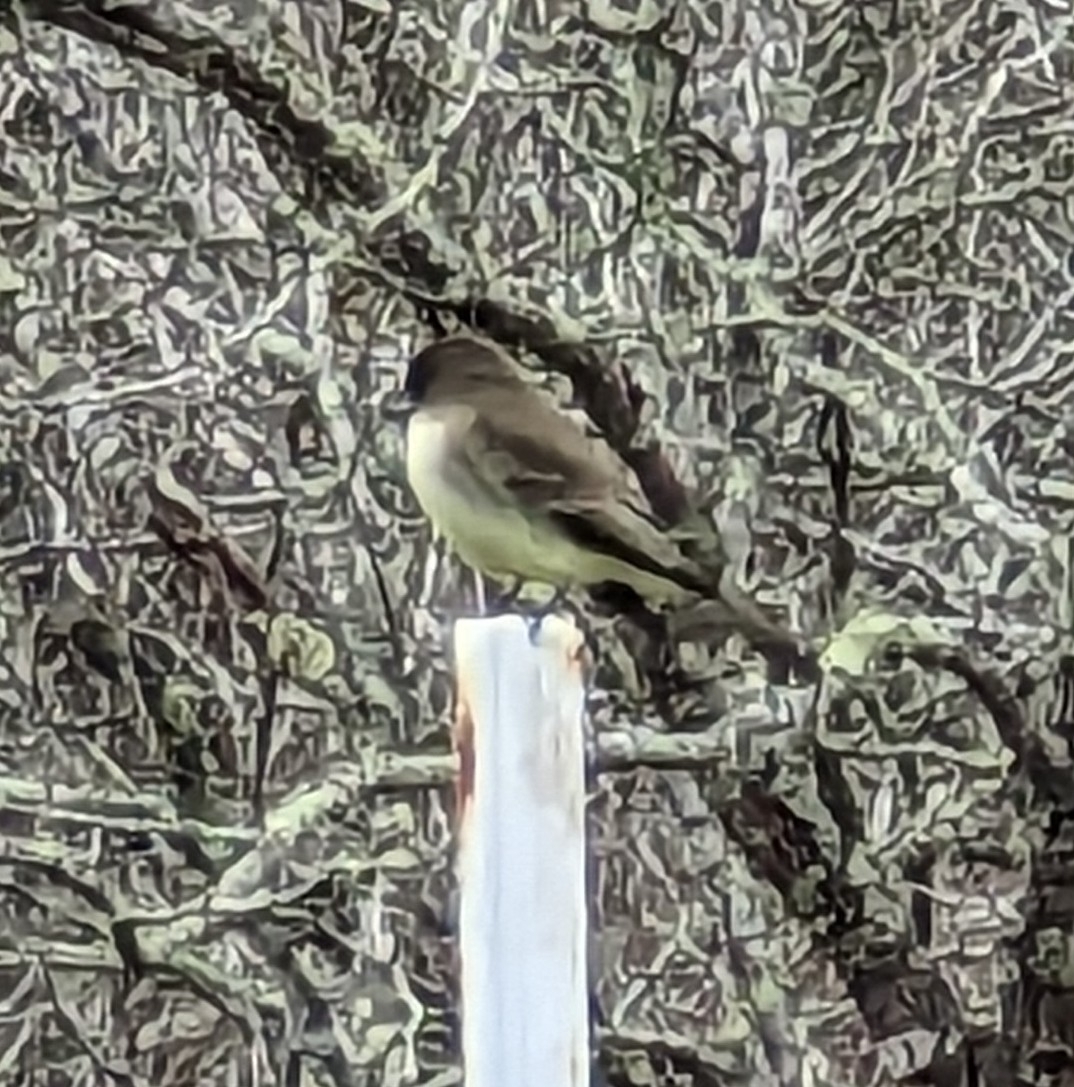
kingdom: Animalia
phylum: Chordata
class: Aves
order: Passeriformes
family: Tyrannidae
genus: Sayornis
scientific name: Sayornis phoebe
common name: Eastern phoebe
